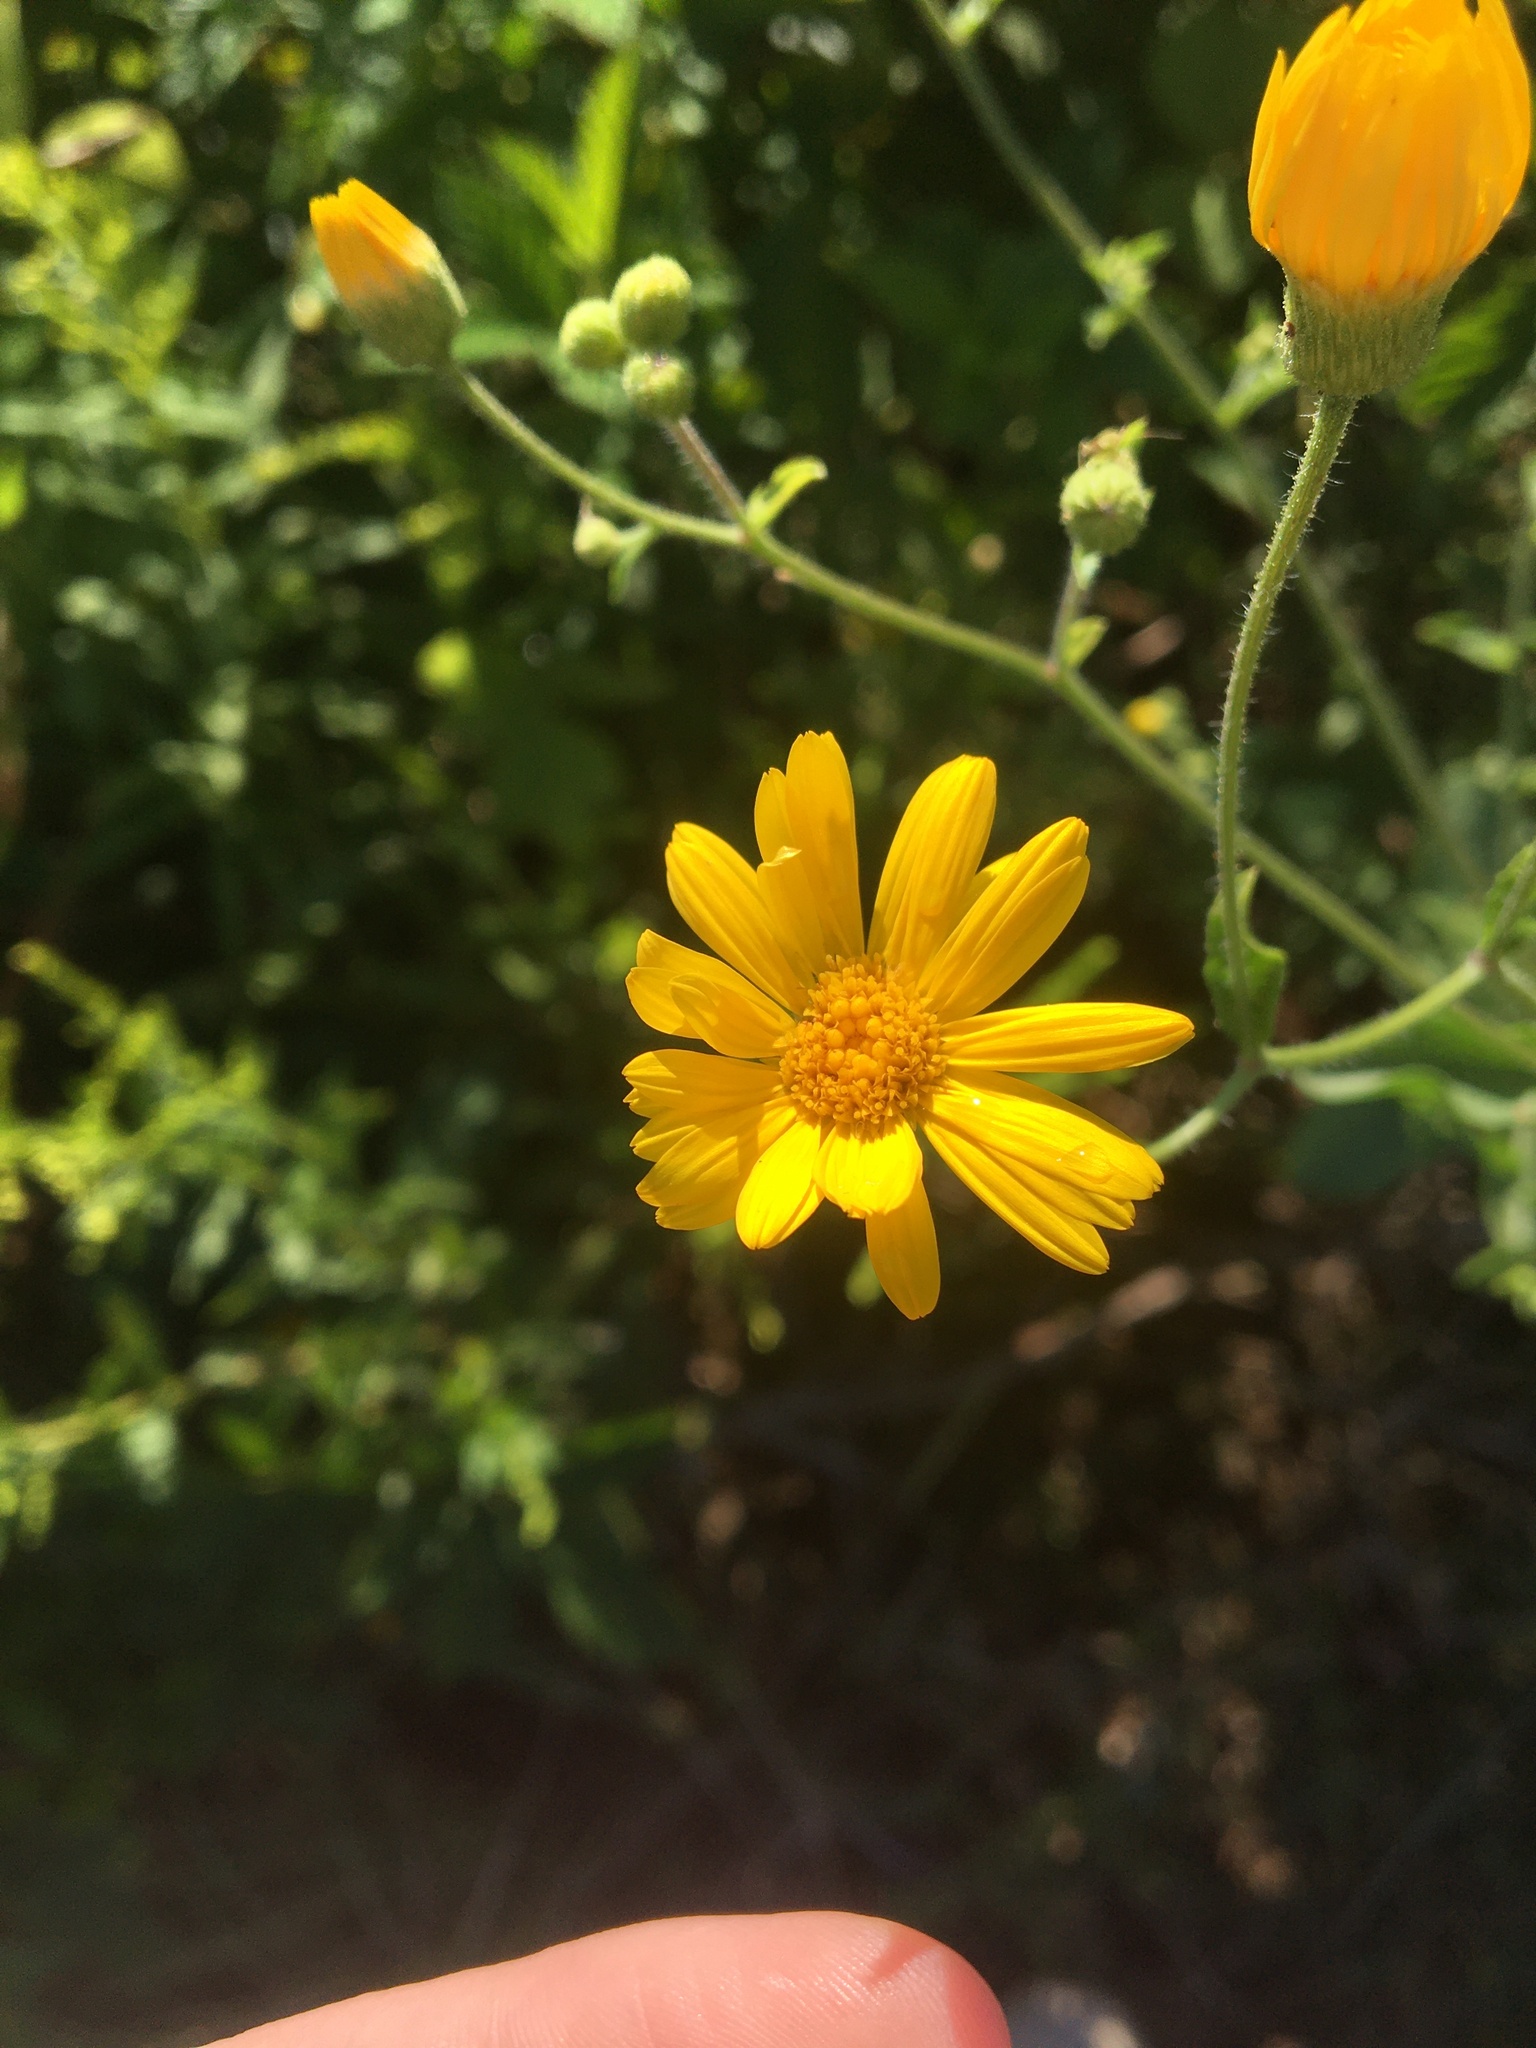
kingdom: Plantae
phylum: Tracheophyta
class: Magnoliopsida
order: Asterales
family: Asteraceae
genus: Heterotheca
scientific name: Heterotheca subaxillaris
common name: Camphorweed
